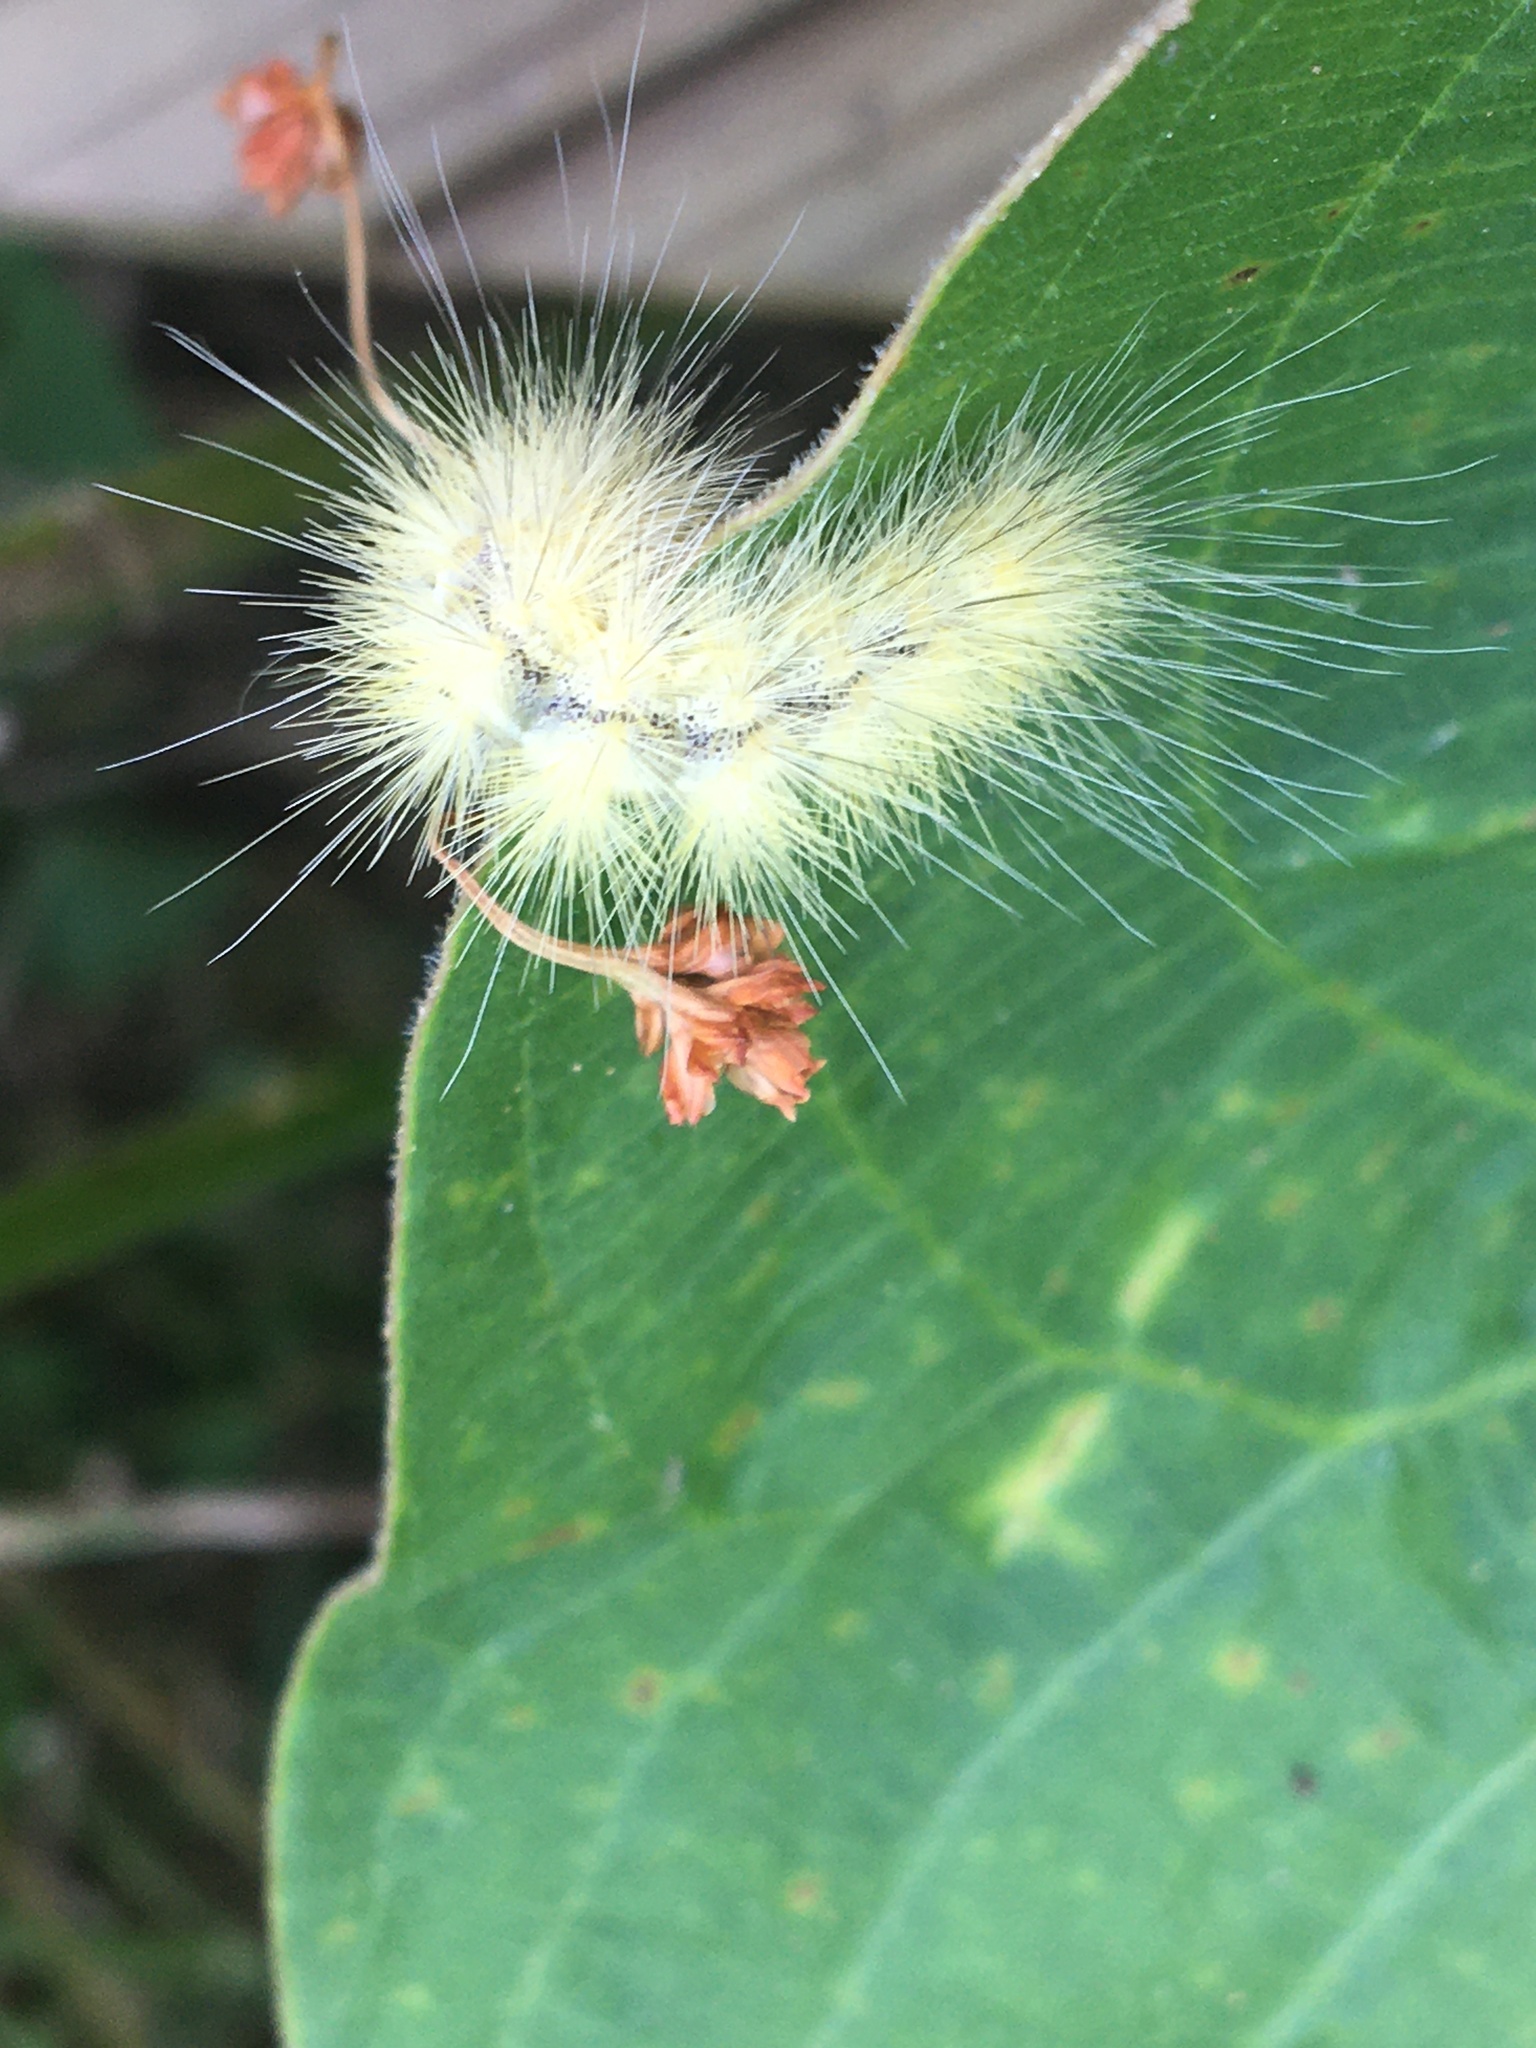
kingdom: Animalia
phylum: Arthropoda
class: Insecta
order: Lepidoptera
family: Erebidae
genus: Spilosoma
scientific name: Spilosoma virginica
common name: Virginia tiger moth
